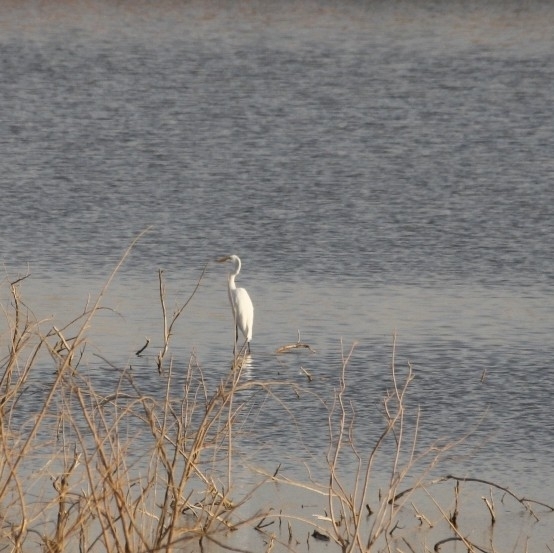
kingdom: Animalia
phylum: Chordata
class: Aves
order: Pelecaniformes
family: Ardeidae
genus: Ardea
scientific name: Ardea alba
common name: Great egret
